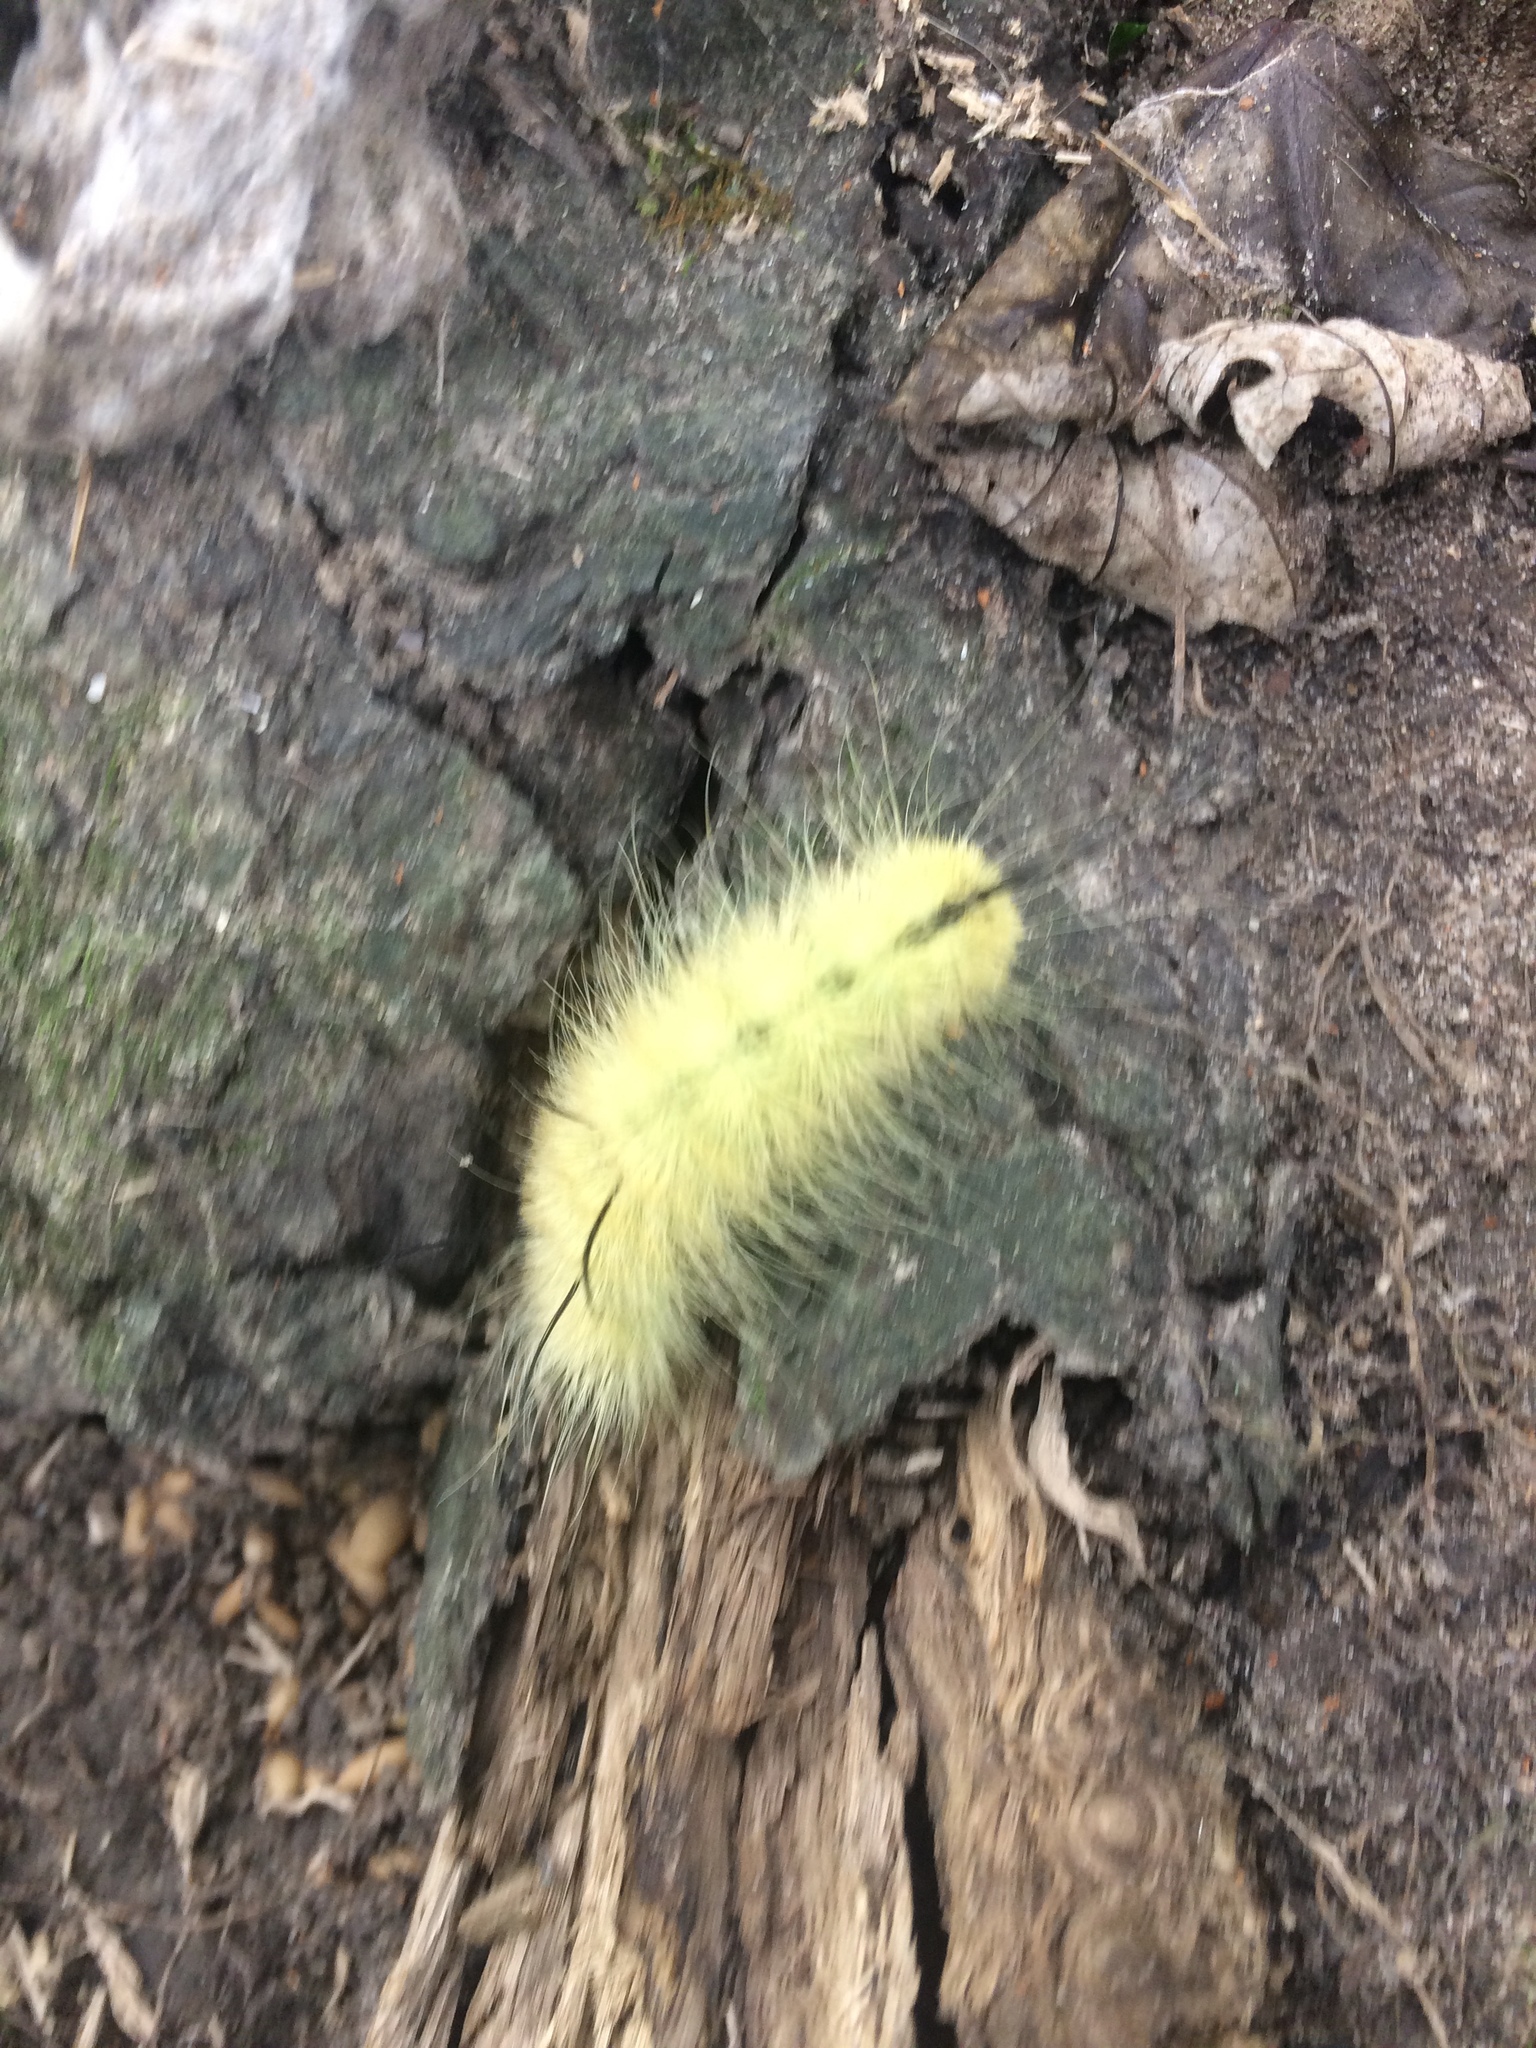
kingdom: Animalia
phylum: Arthropoda
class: Insecta
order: Lepidoptera
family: Noctuidae
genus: Acronicta
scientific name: Acronicta americana
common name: American dagger
